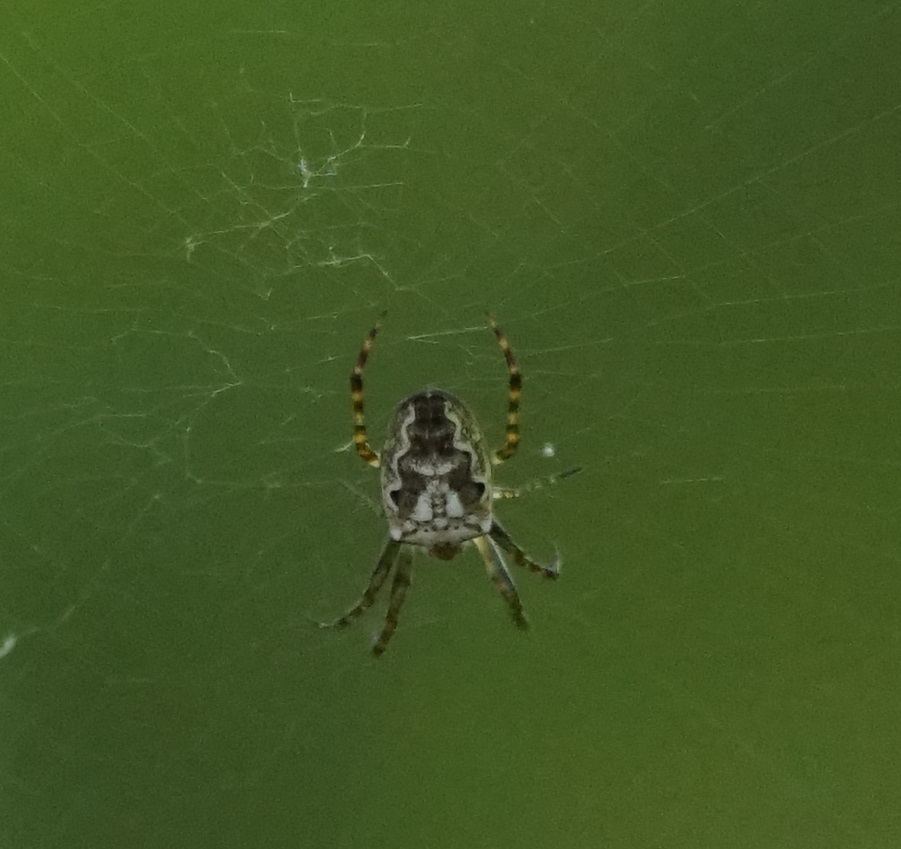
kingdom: Animalia
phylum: Arthropoda
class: Arachnida
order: Araneae
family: Araneidae
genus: Plebs
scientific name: Plebs eburnus
